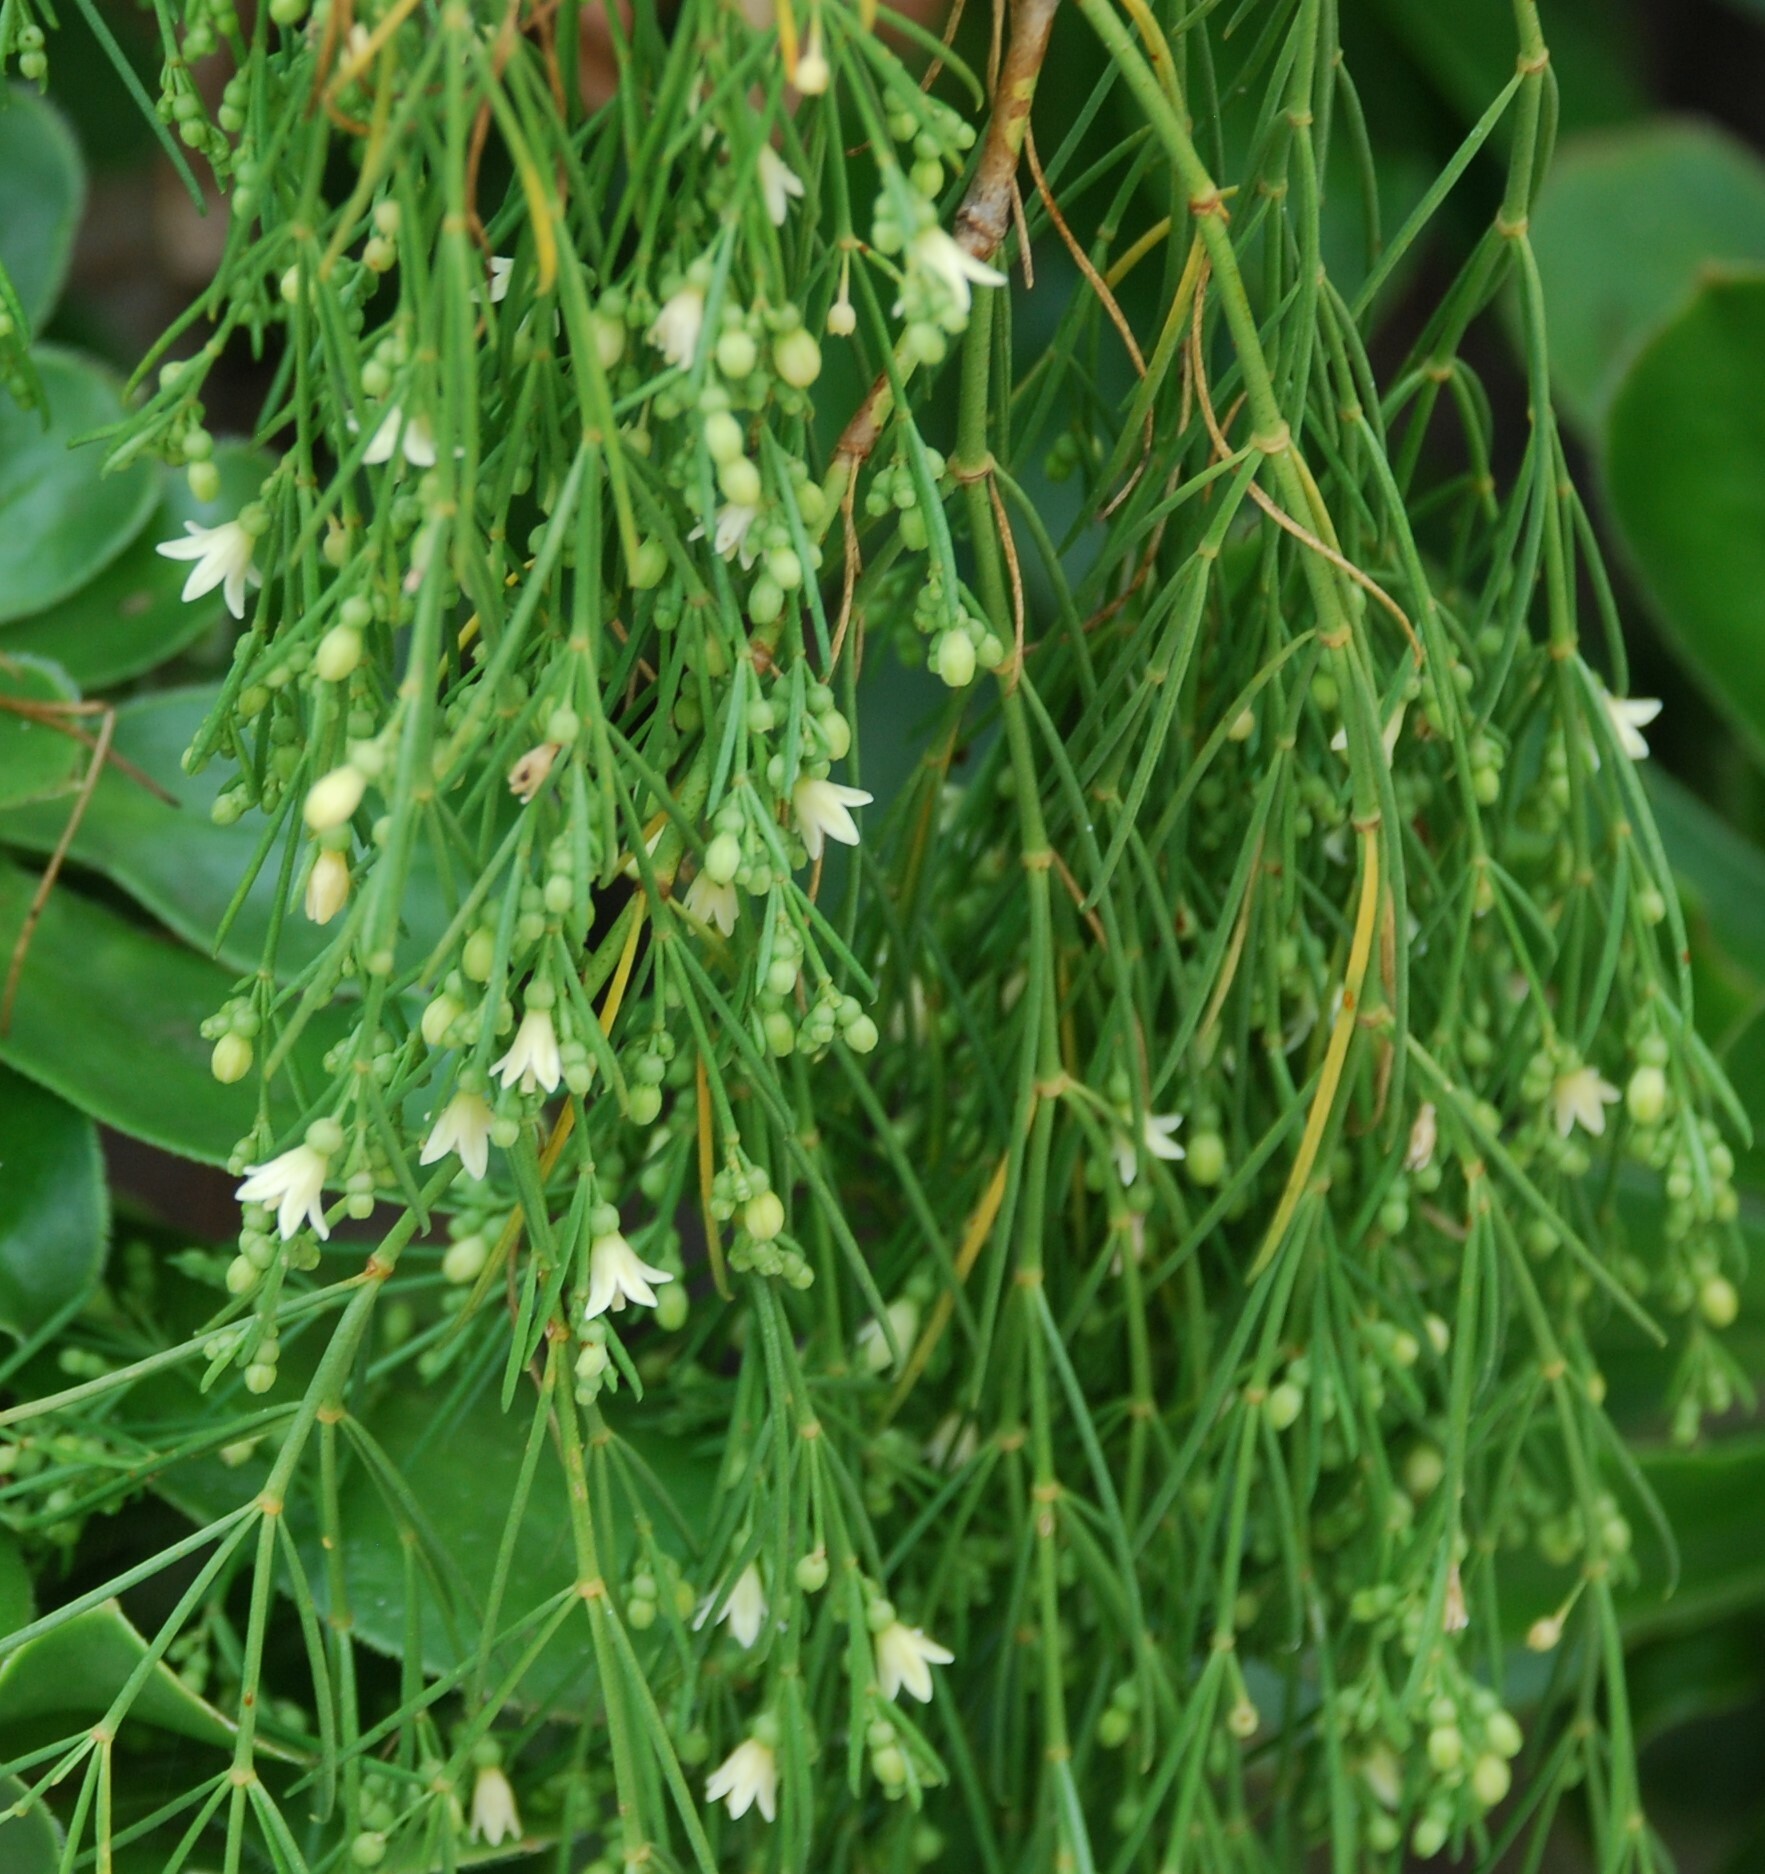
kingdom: Plantae
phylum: Tracheophyta
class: Magnoliopsida
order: Gentianales
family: Rubiaceae
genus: Plocama
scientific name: Plocama pendula
